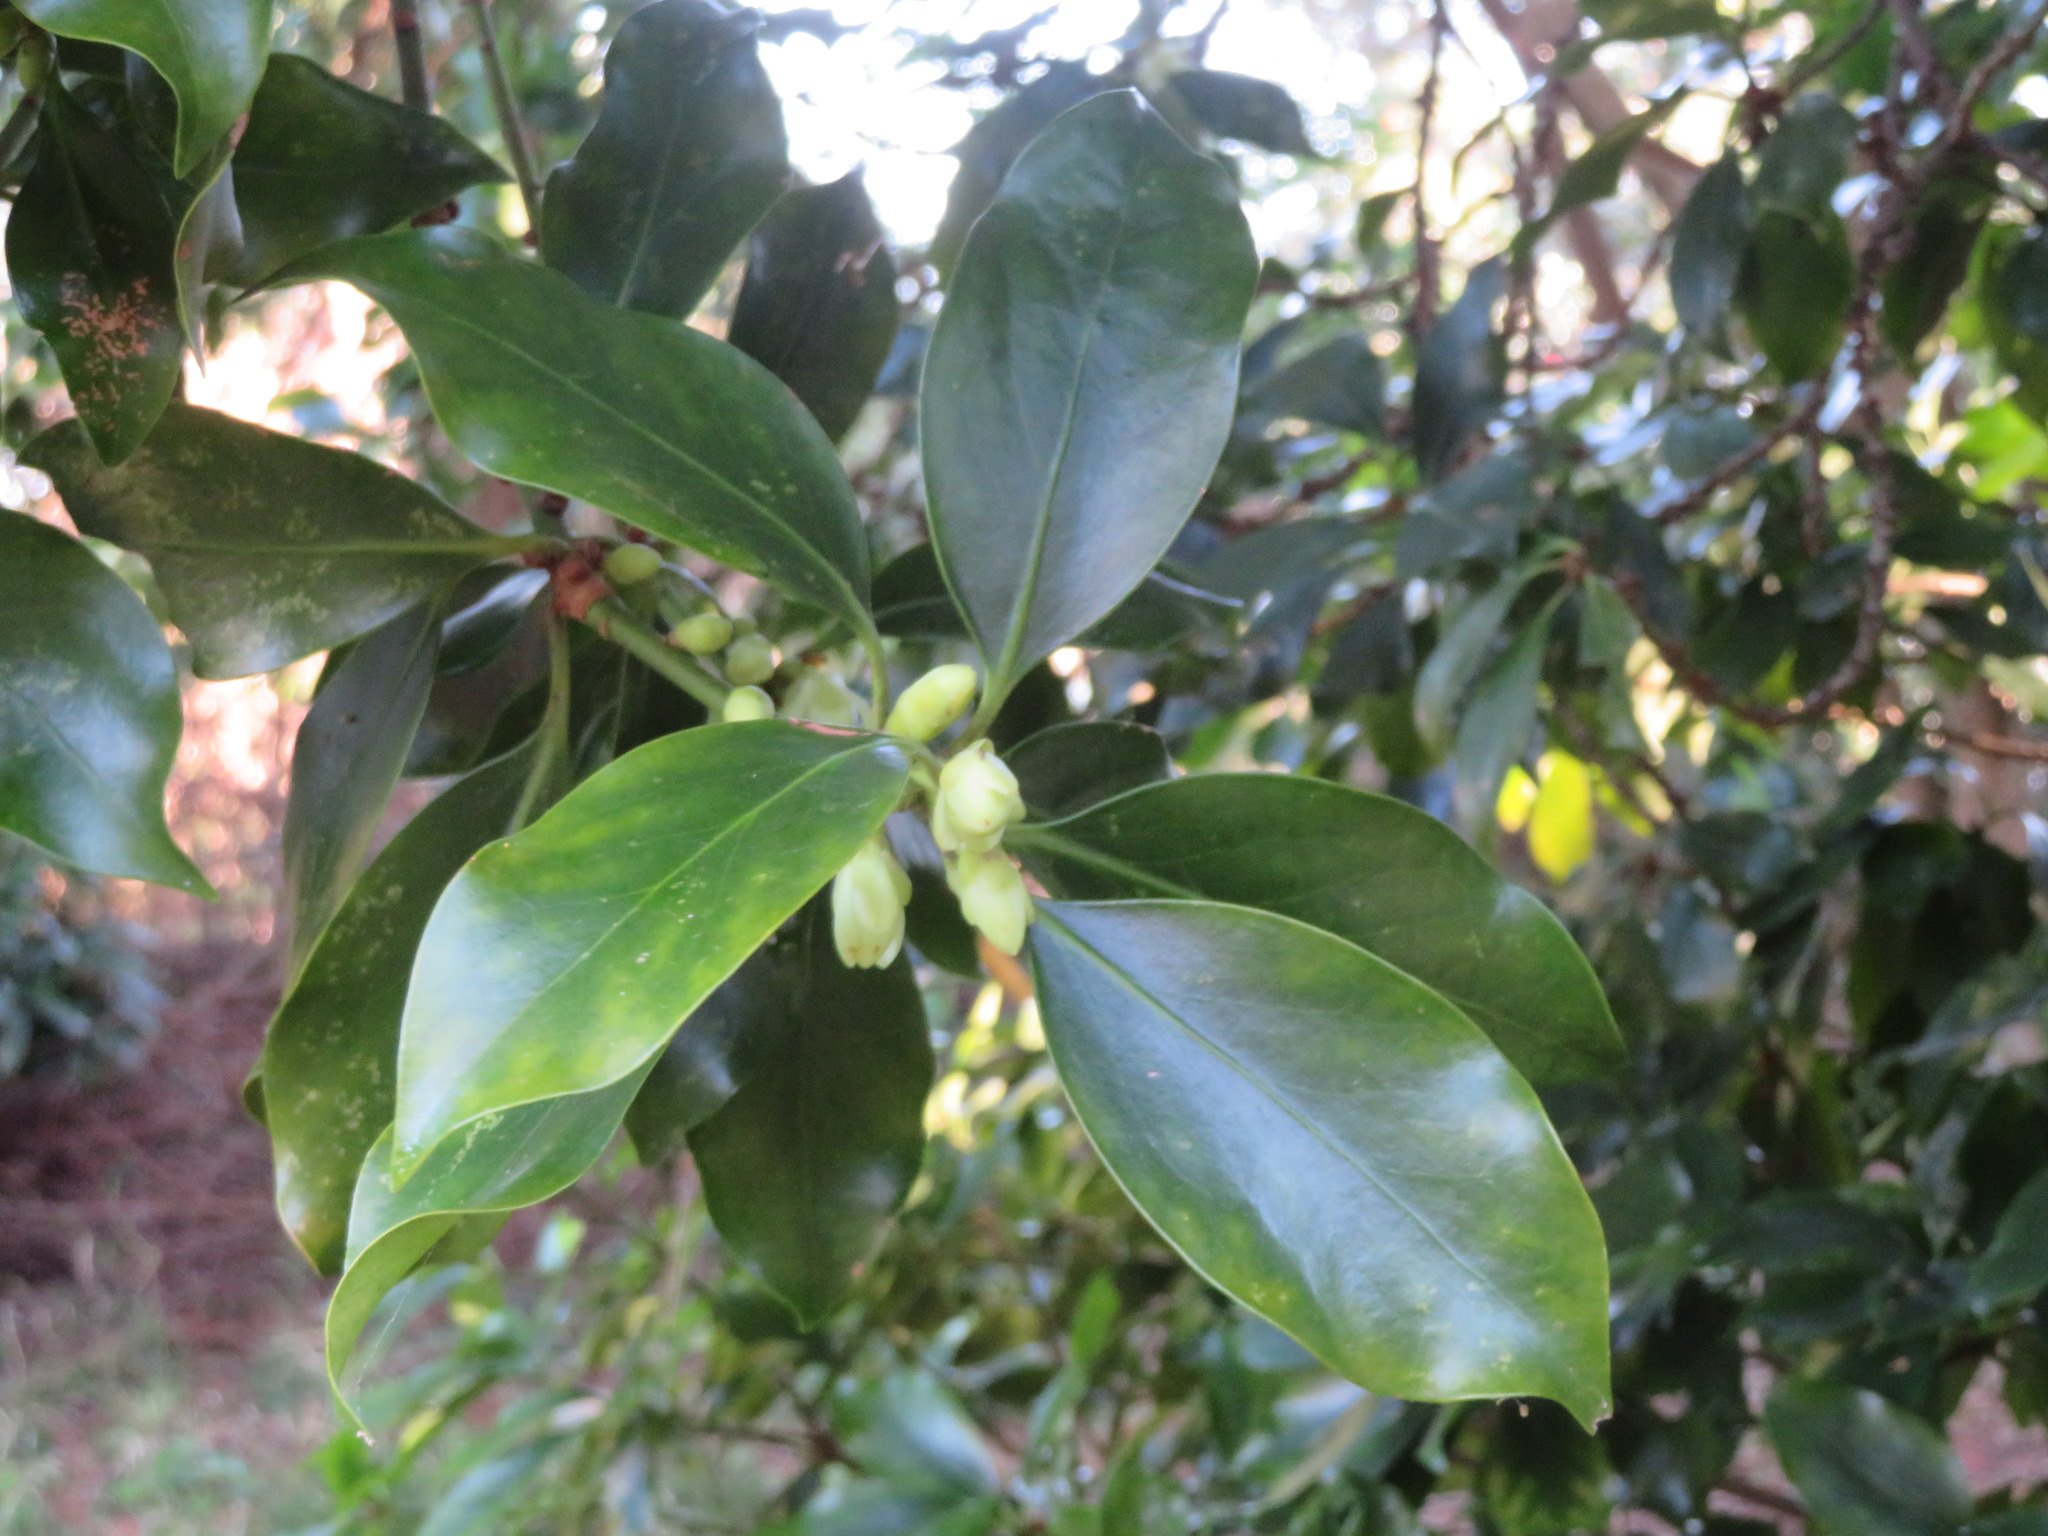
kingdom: Plantae
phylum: Tracheophyta
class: Magnoliopsida
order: Austrobaileyales
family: Schisandraceae
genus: Illicium
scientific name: Illicium anisatum
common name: Sacred anisetree
